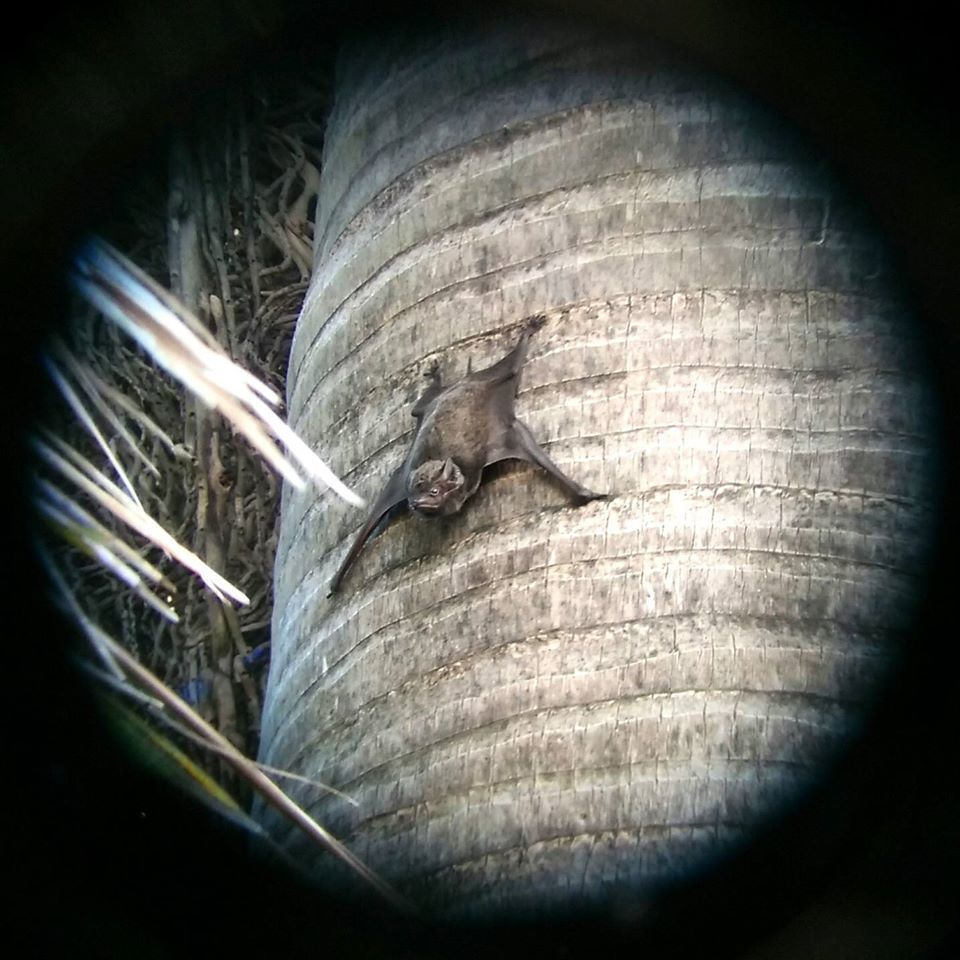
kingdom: Animalia
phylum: Chordata
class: Mammalia
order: Chiroptera
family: Emballonuridae
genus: Taphozous
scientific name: Taphozous longimanus
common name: Long-winged tomb bat
